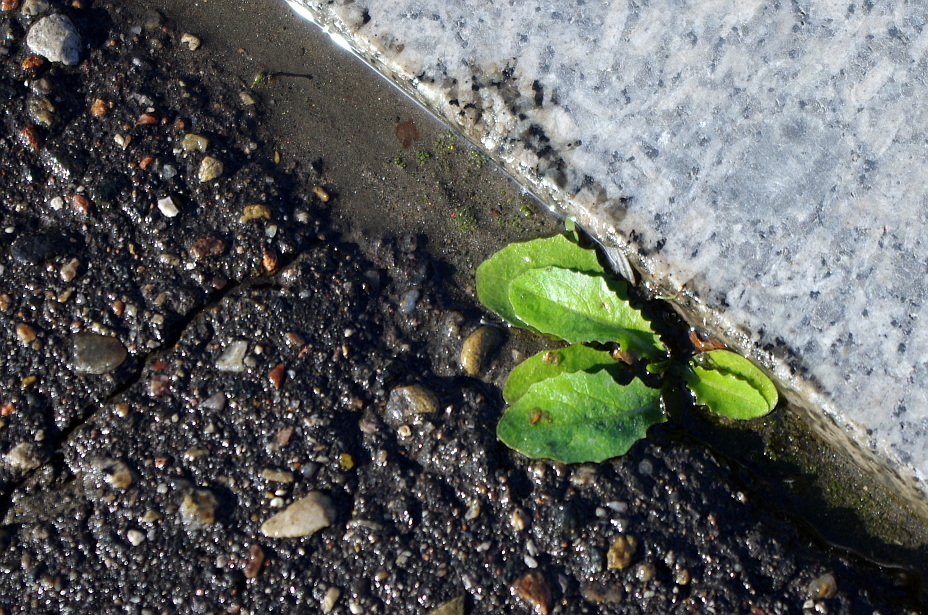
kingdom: Plantae
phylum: Tracheophyta
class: Magnoliopsida
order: Asterales
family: Asteraceae
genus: Taraxacum
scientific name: Taraxacum officinale
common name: Common dandelion
